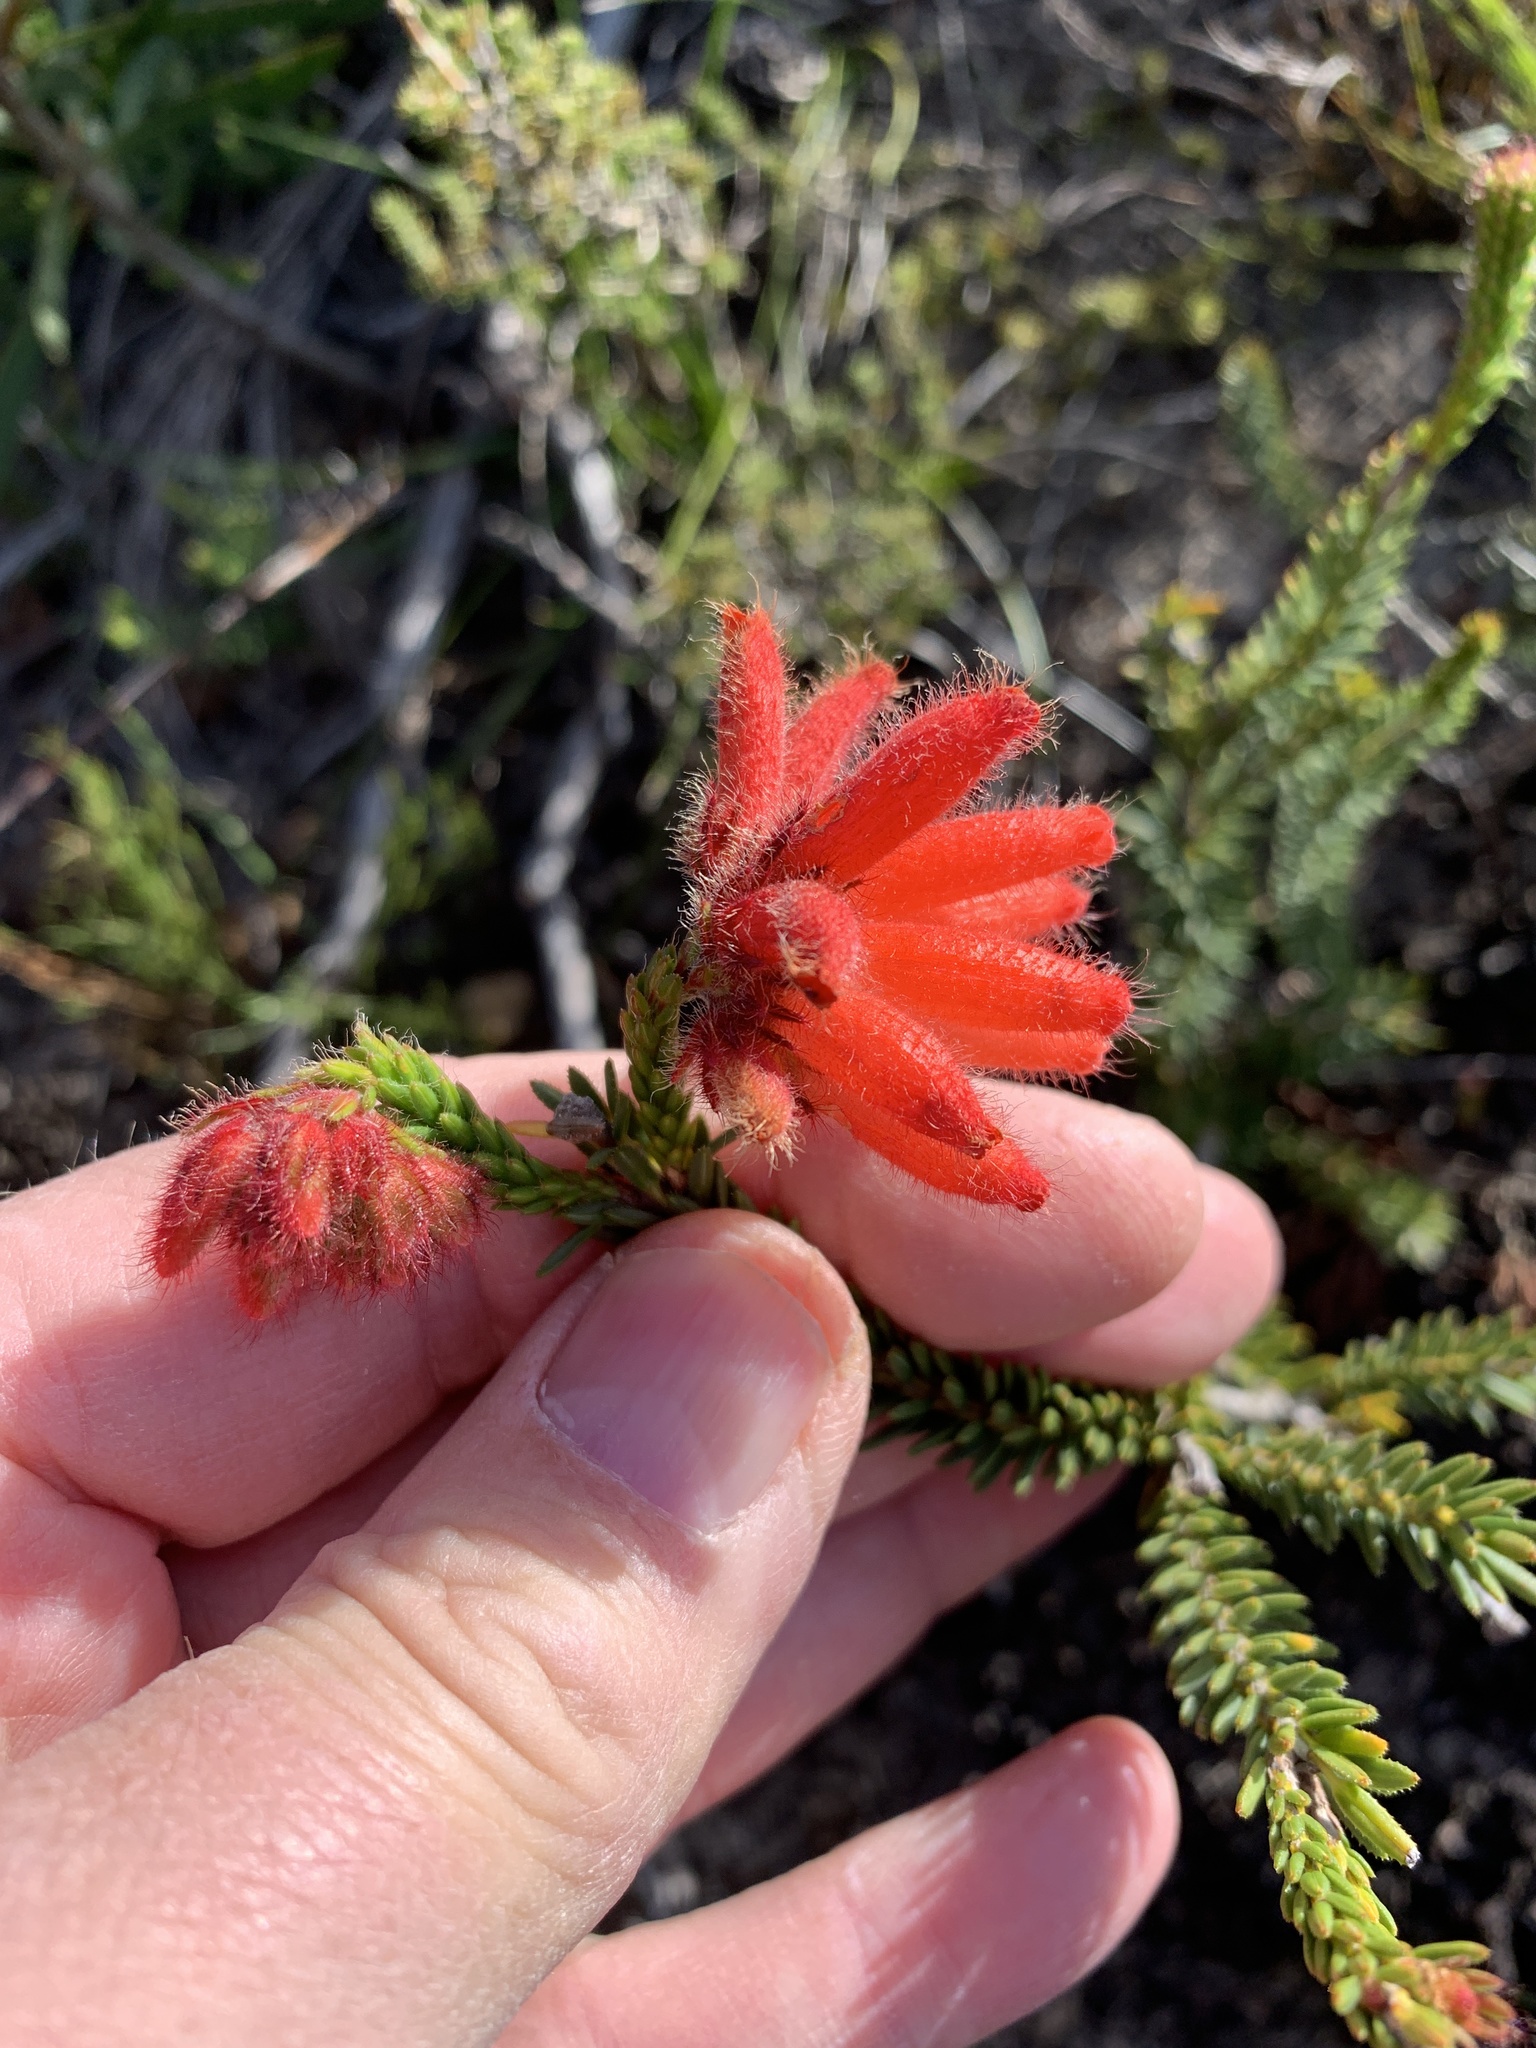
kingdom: Plantae
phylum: Tracheophyta
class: Magnoliopsida
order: Ericales
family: Ericaceae
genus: Erica
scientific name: Erica cerinthoides
